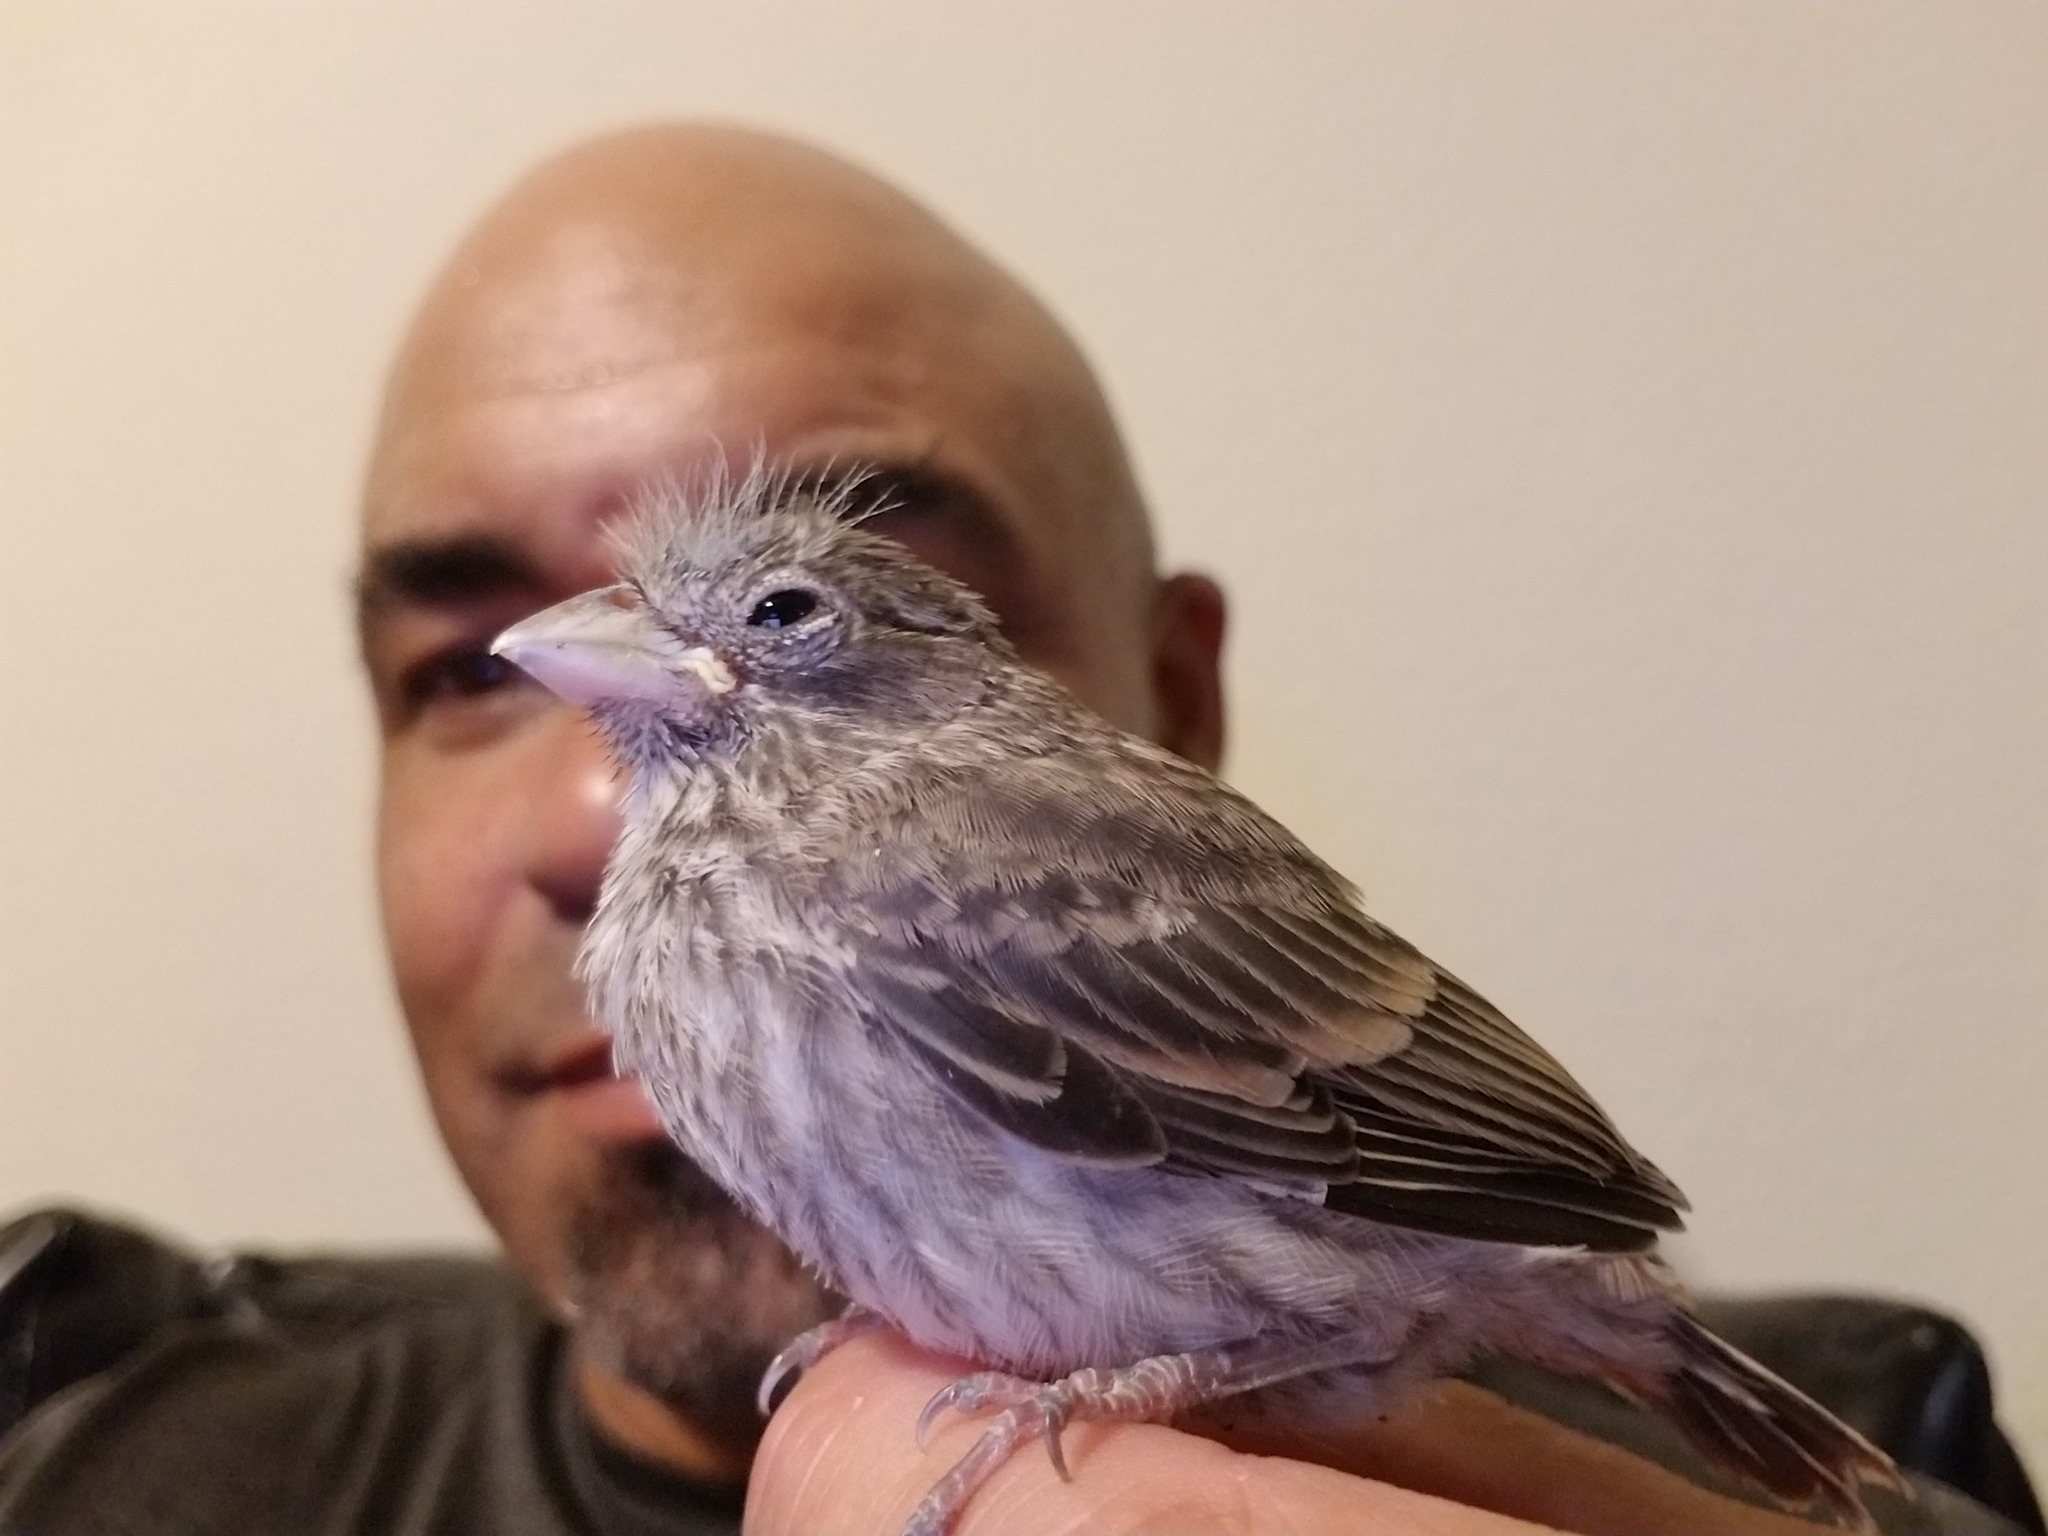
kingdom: Animalia
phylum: Chordata
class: Aves
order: Passeriformes
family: Fringillidae
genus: Haemorhous
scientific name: Haemorhous mexicanus
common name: House finch
